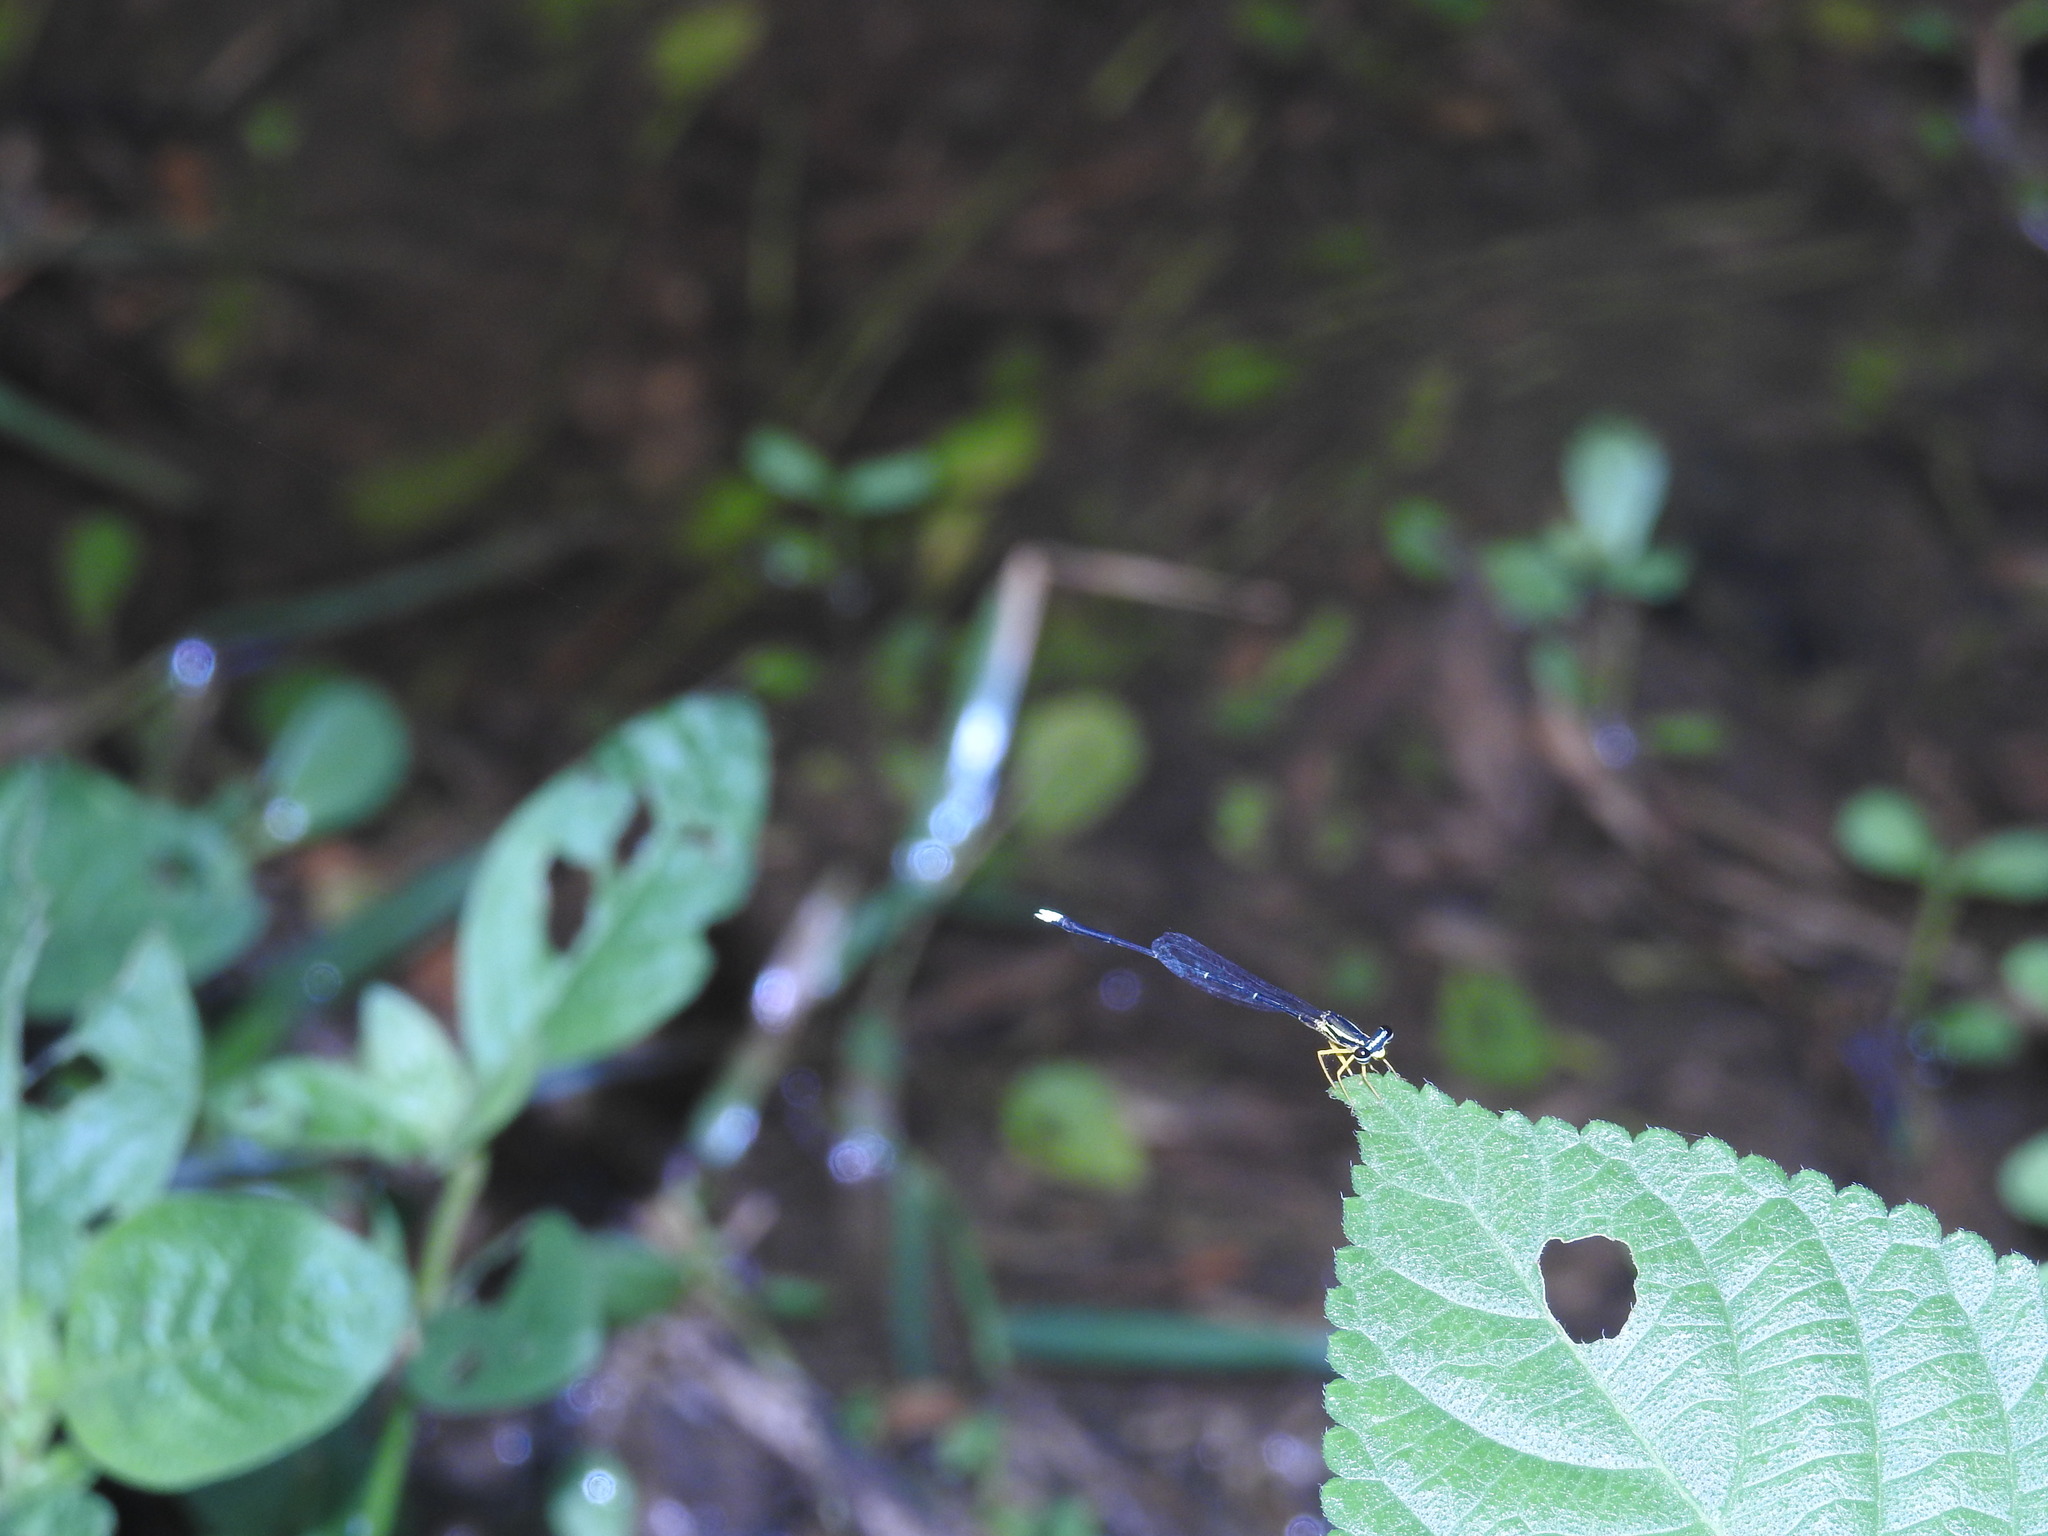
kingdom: Animalia
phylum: Arthropoda
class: Insecta
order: Odonata
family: Platycnemididae
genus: Copera
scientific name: Copera marginipes
